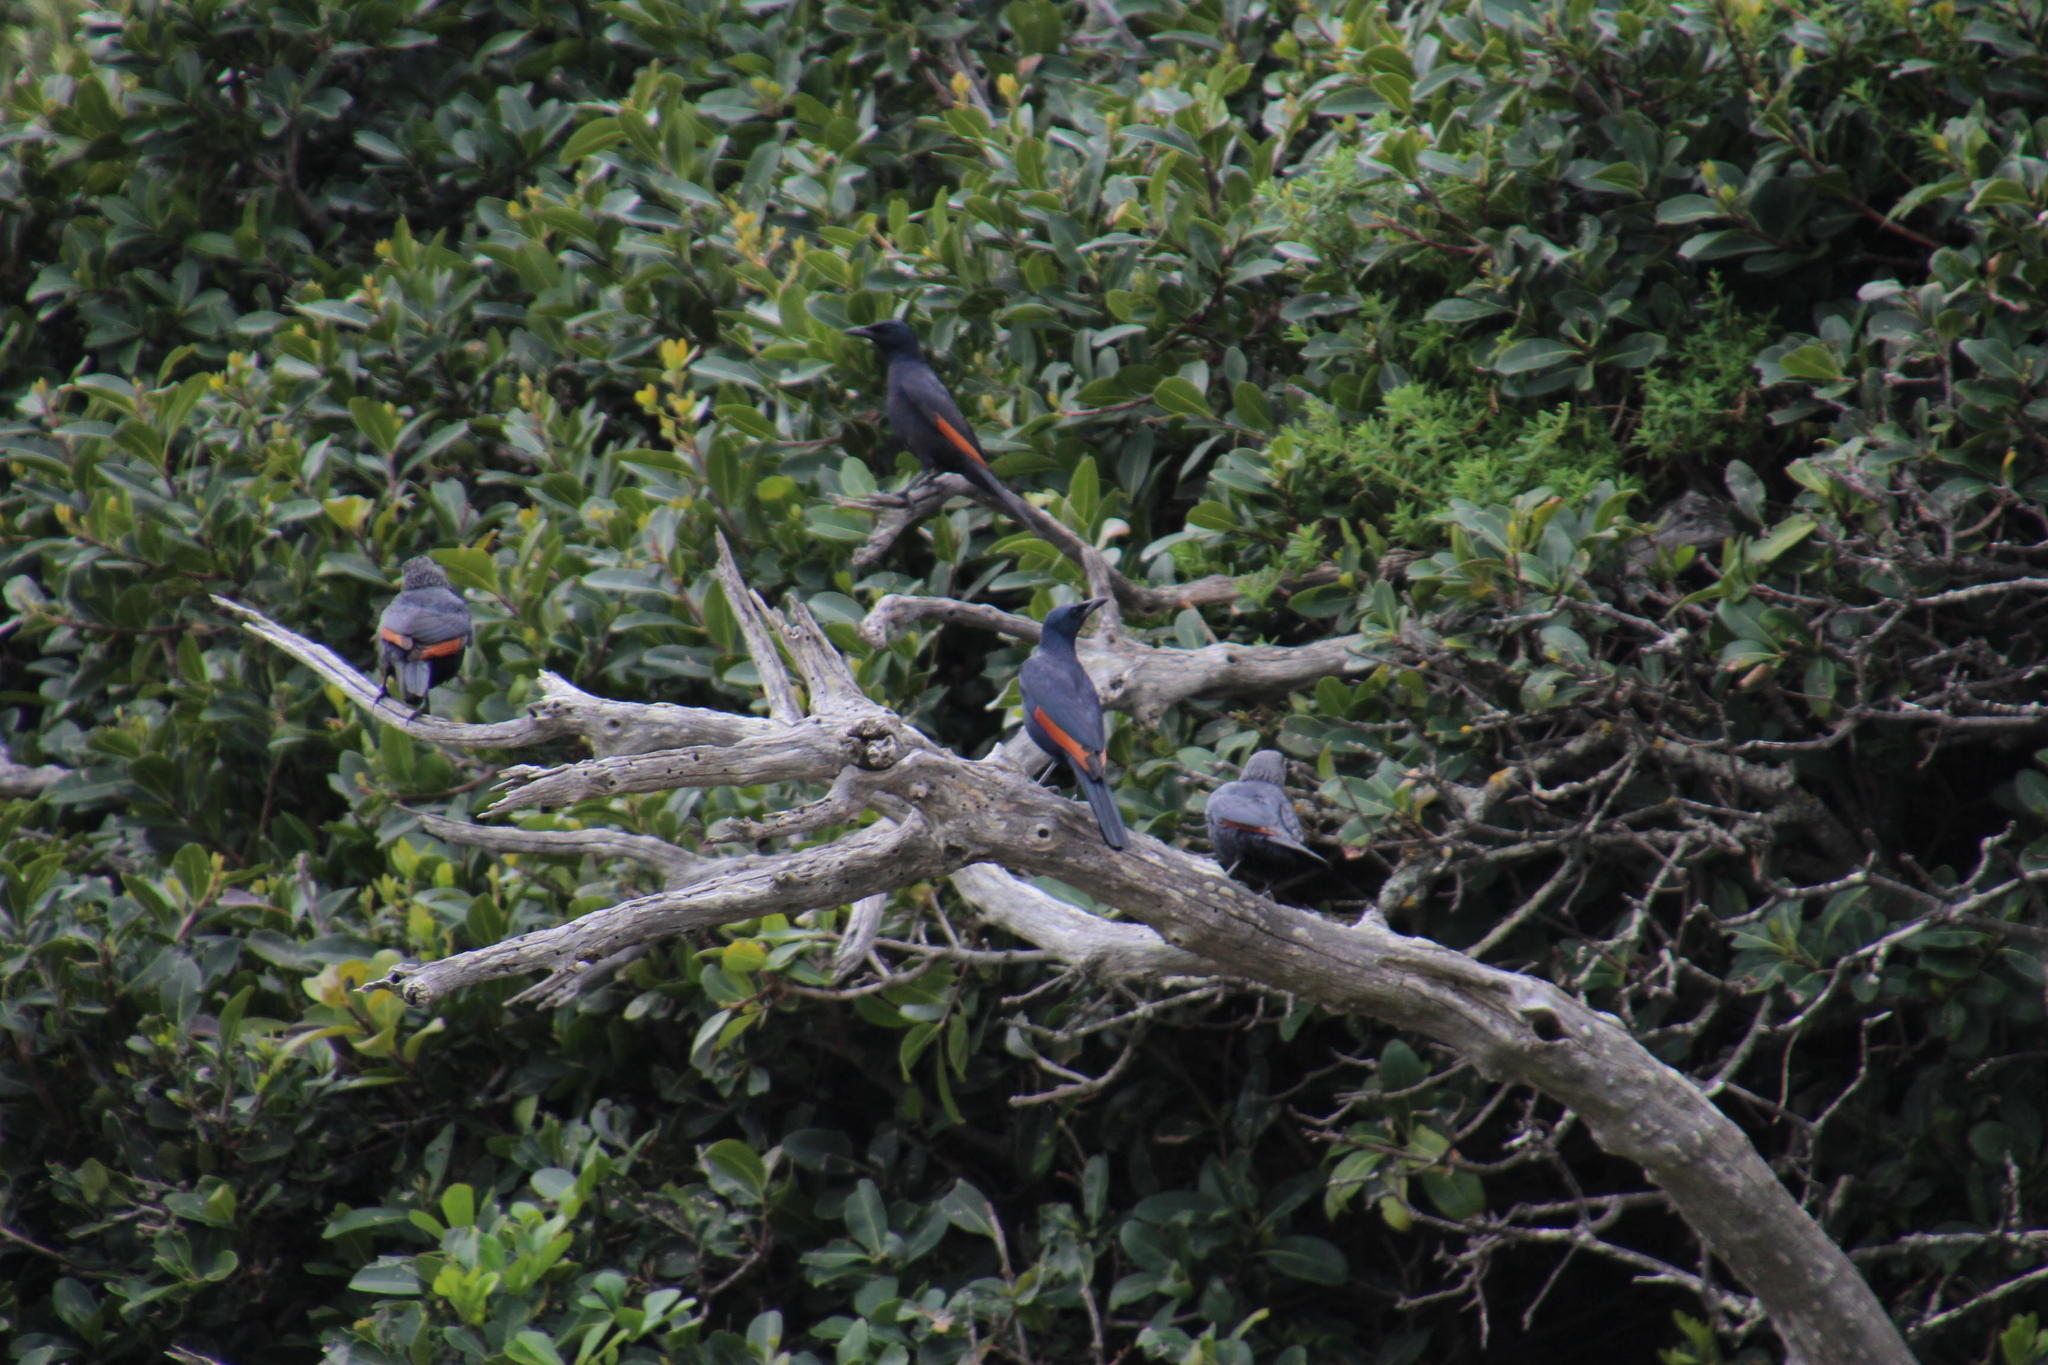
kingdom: Animalia
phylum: Chordata
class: Aves
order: Passeriformes
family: Sturnidae
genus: Onychognathus
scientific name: Onychognathus morio
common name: Red-winged starling
